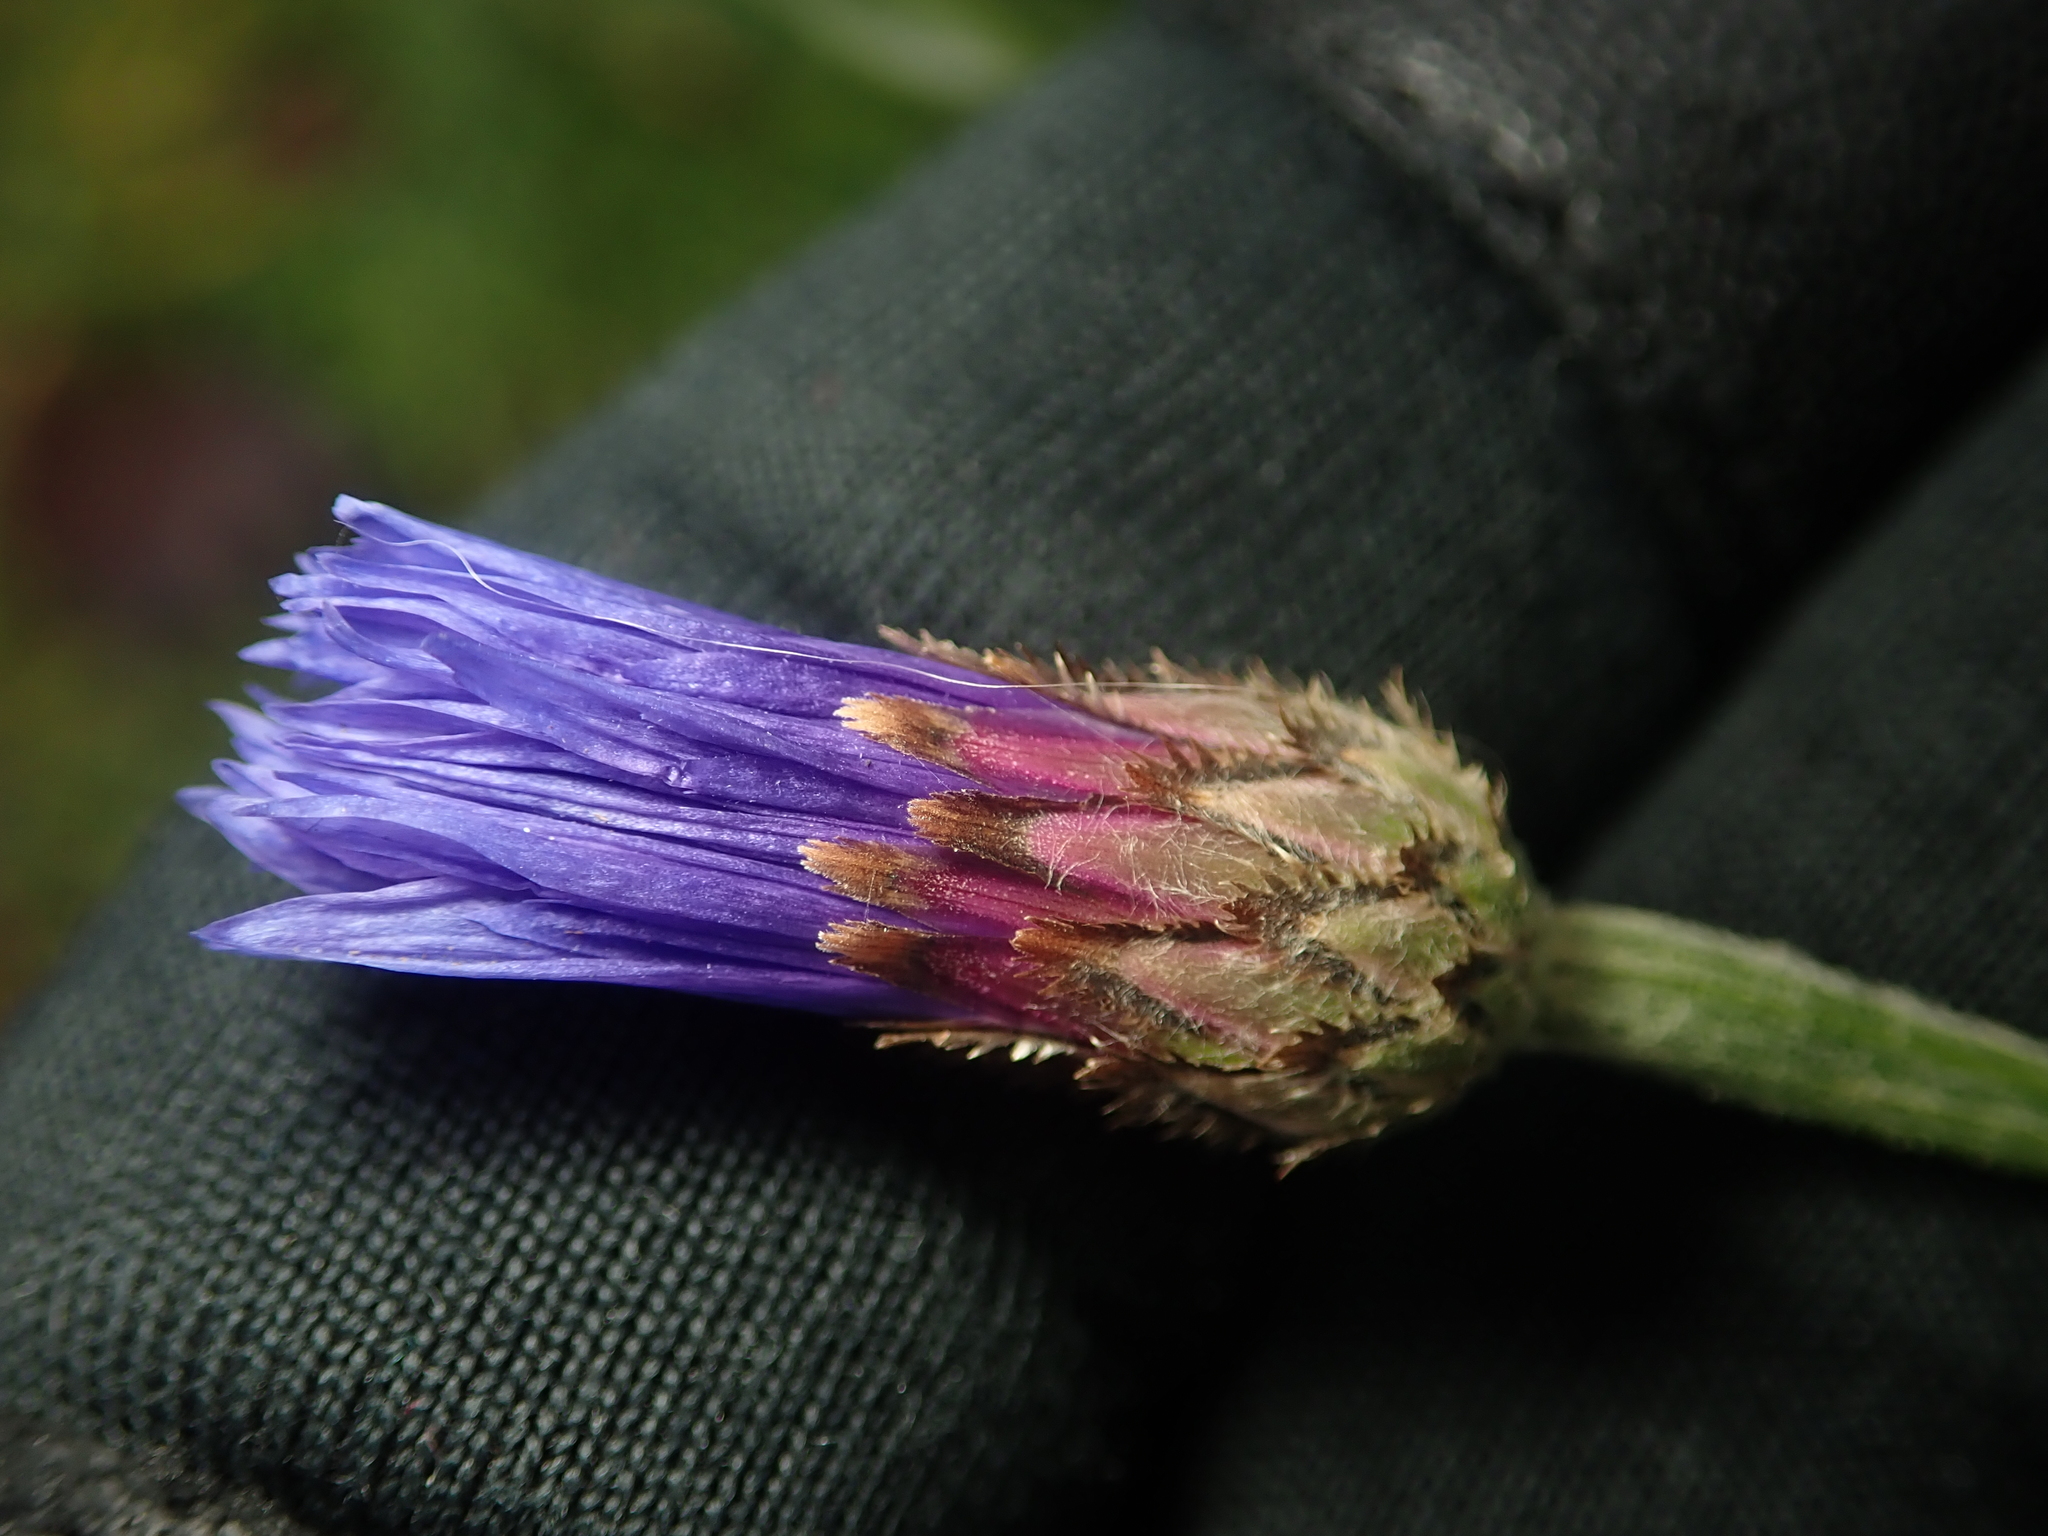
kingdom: Plantae
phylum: Tracheophyta
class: Magnoliopsida
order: Asterales
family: Asteraceae
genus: Centaurea
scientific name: Centaurea cyanus
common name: Cornflower
